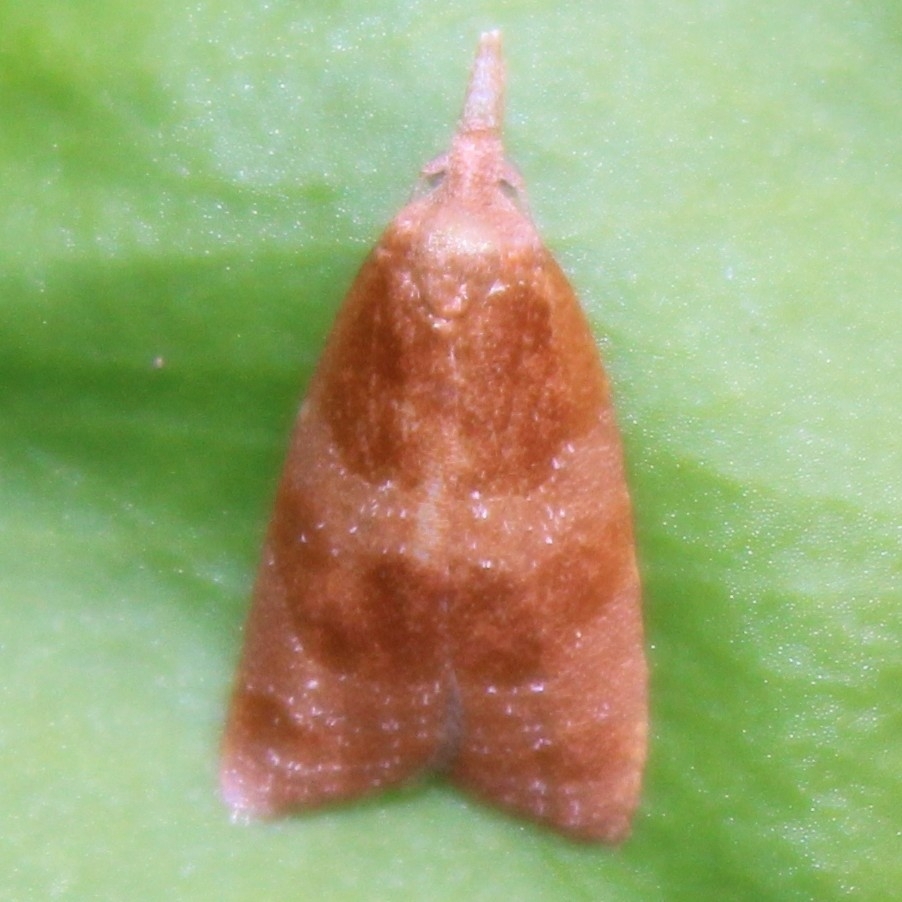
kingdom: Animalia
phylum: Arthropoda
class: Insecta
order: Lepidoptera
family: Tortricidae
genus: Cenopis
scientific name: Cenopis diluticostana
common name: Spring dead-leaf roller moth
